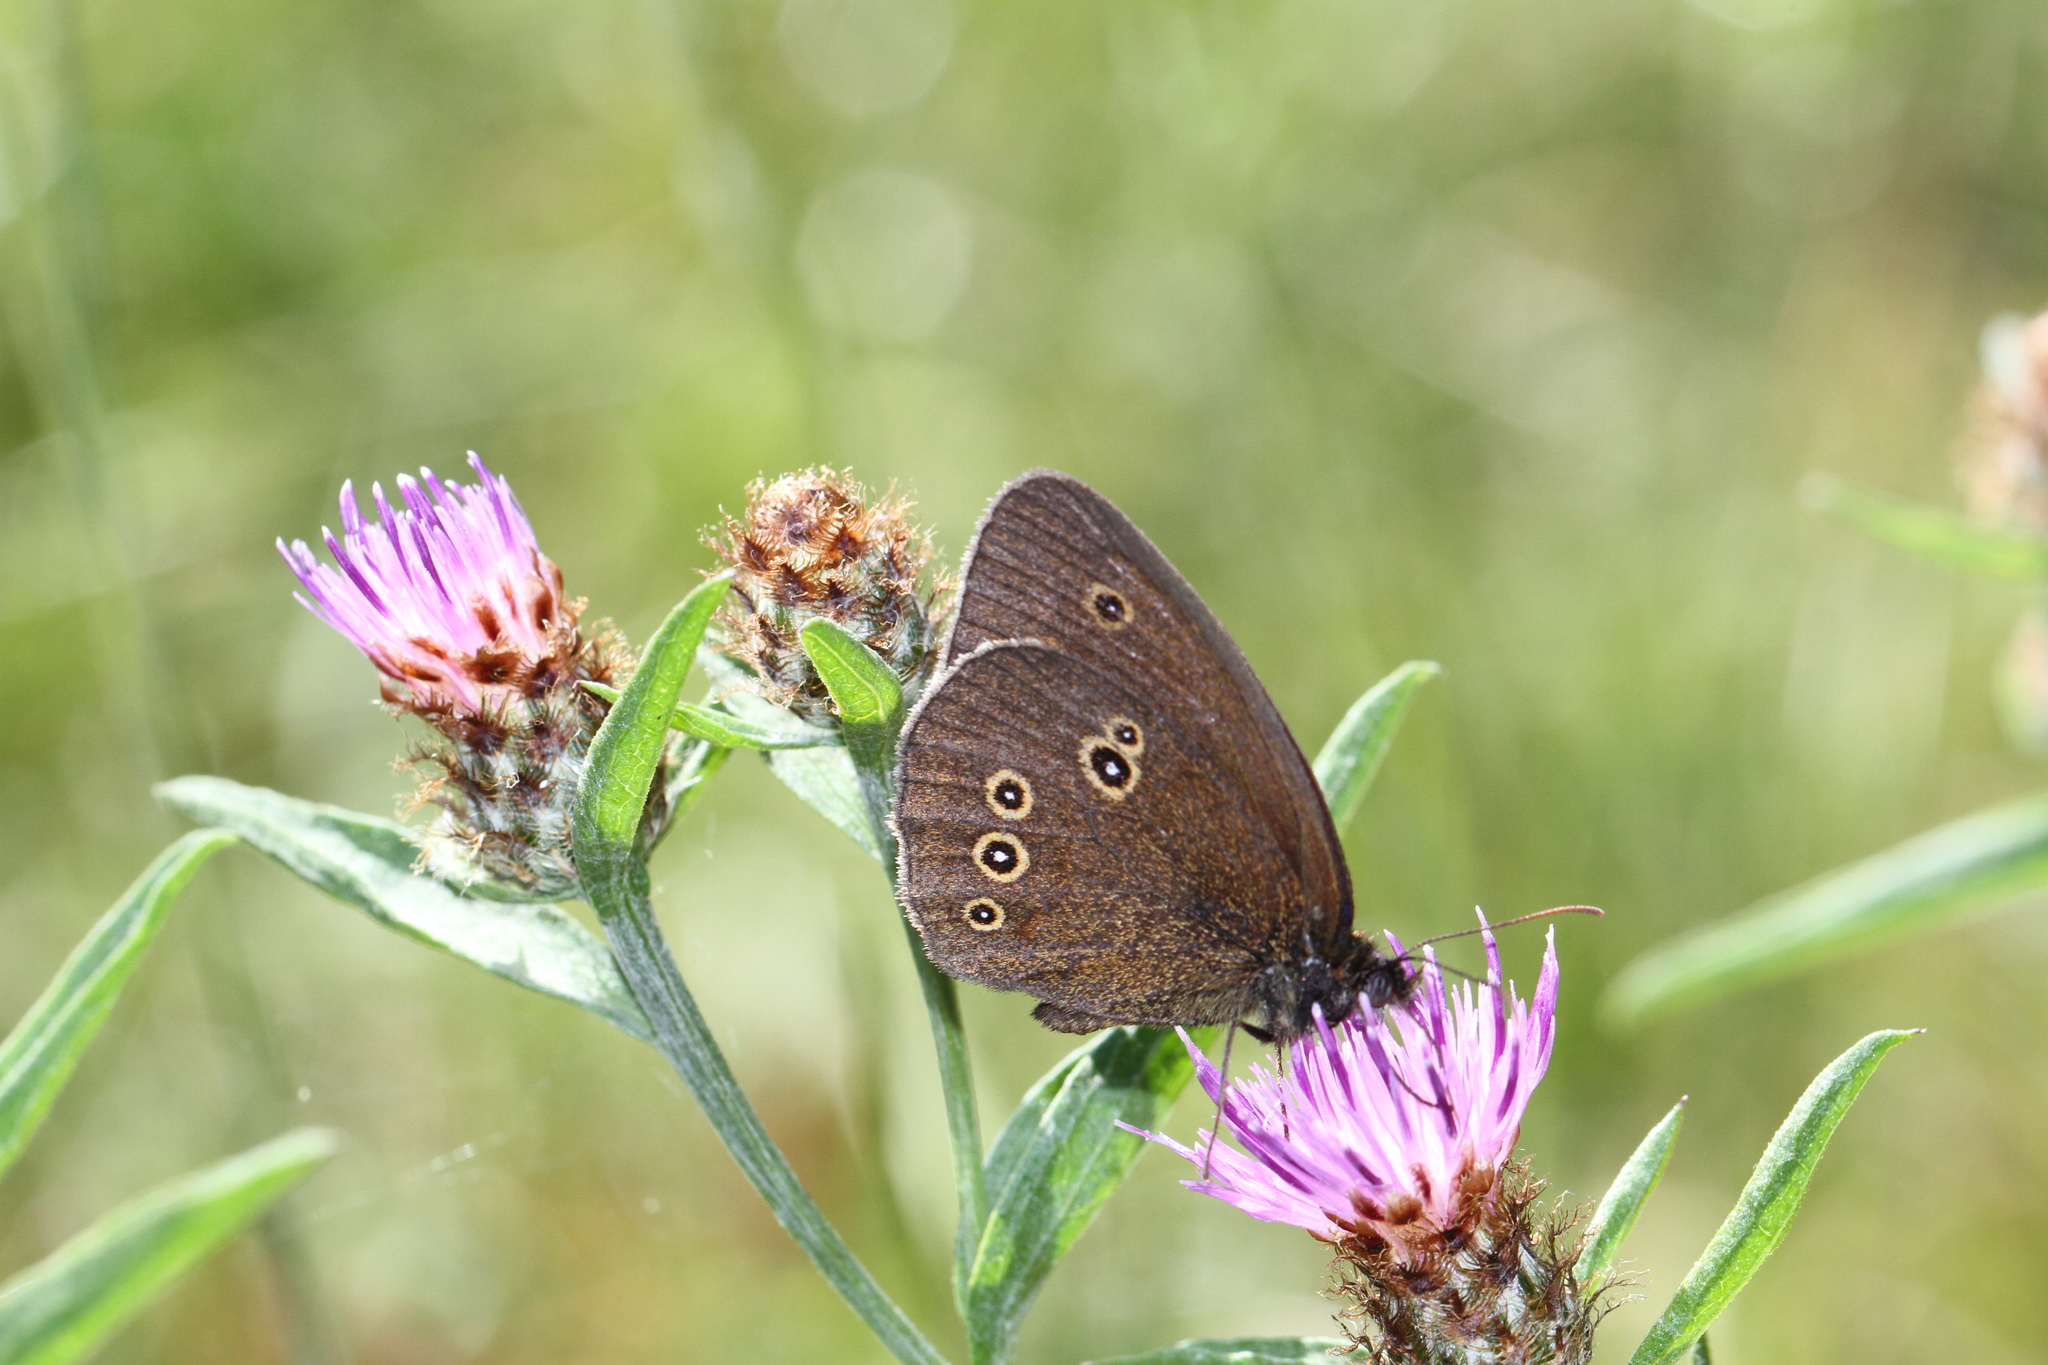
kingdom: Animalia
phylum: Arthropoda
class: Insecta
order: Lepidoptera
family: Nymphalidae
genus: Aphantopus
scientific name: Aphantopus hyperantus
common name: Ringlet
